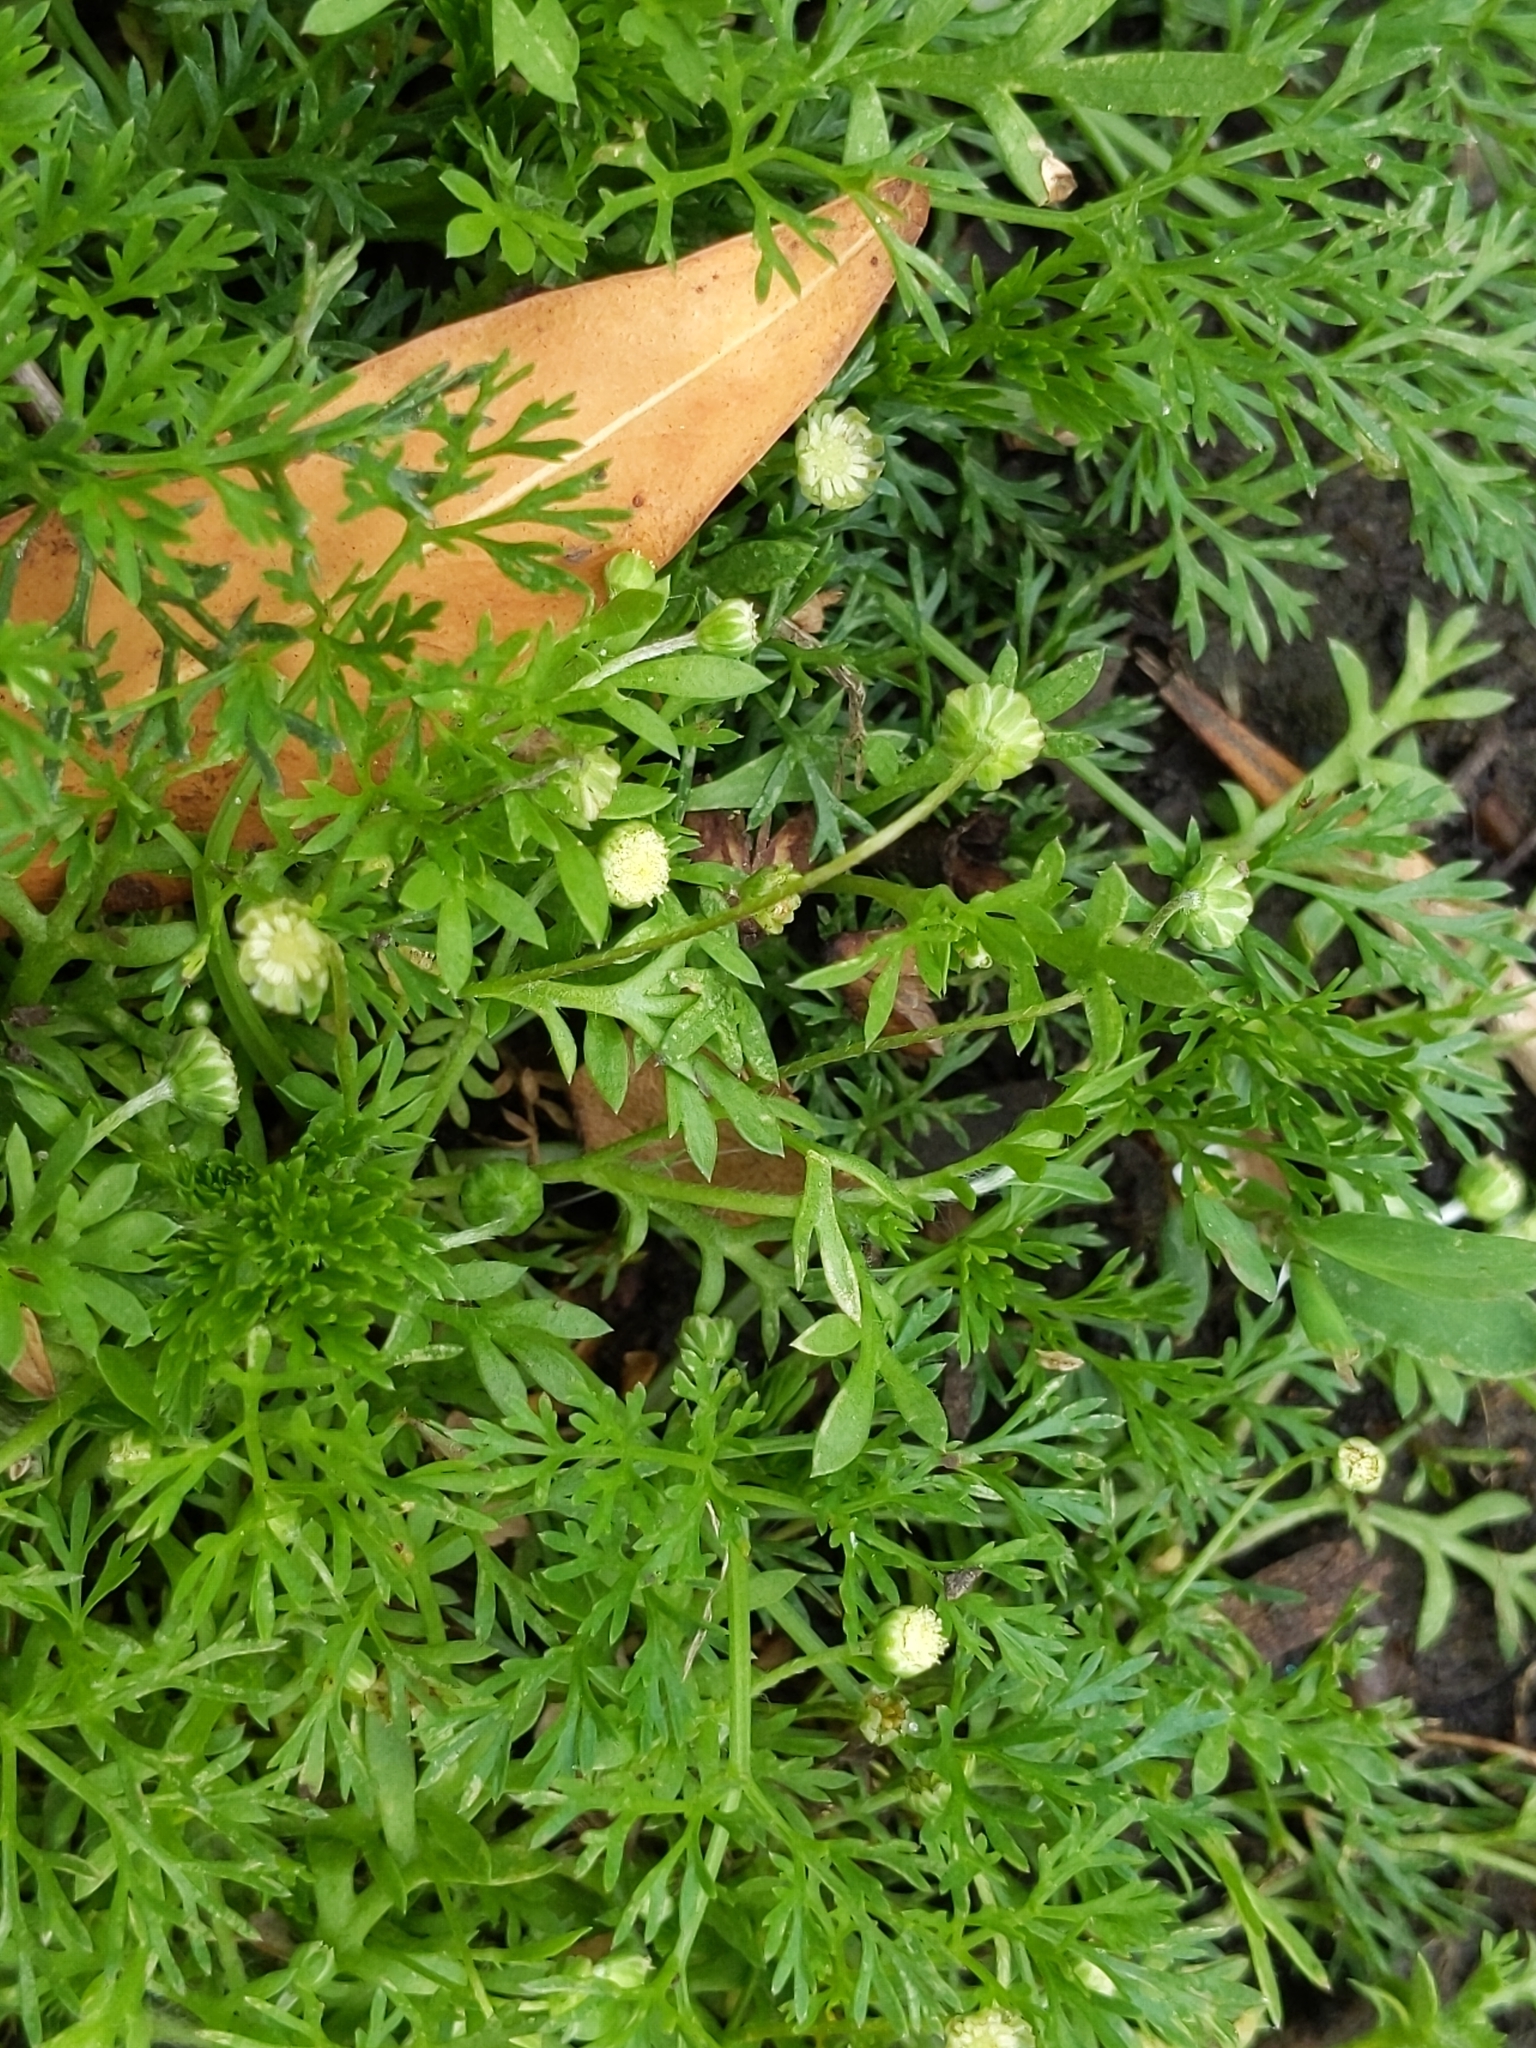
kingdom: Plantae
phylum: Tracheophyta
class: Magnoliopsida
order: Asterales
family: Asteraceae
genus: Cotula
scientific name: Cotula australis
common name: Australian waterbuttons
